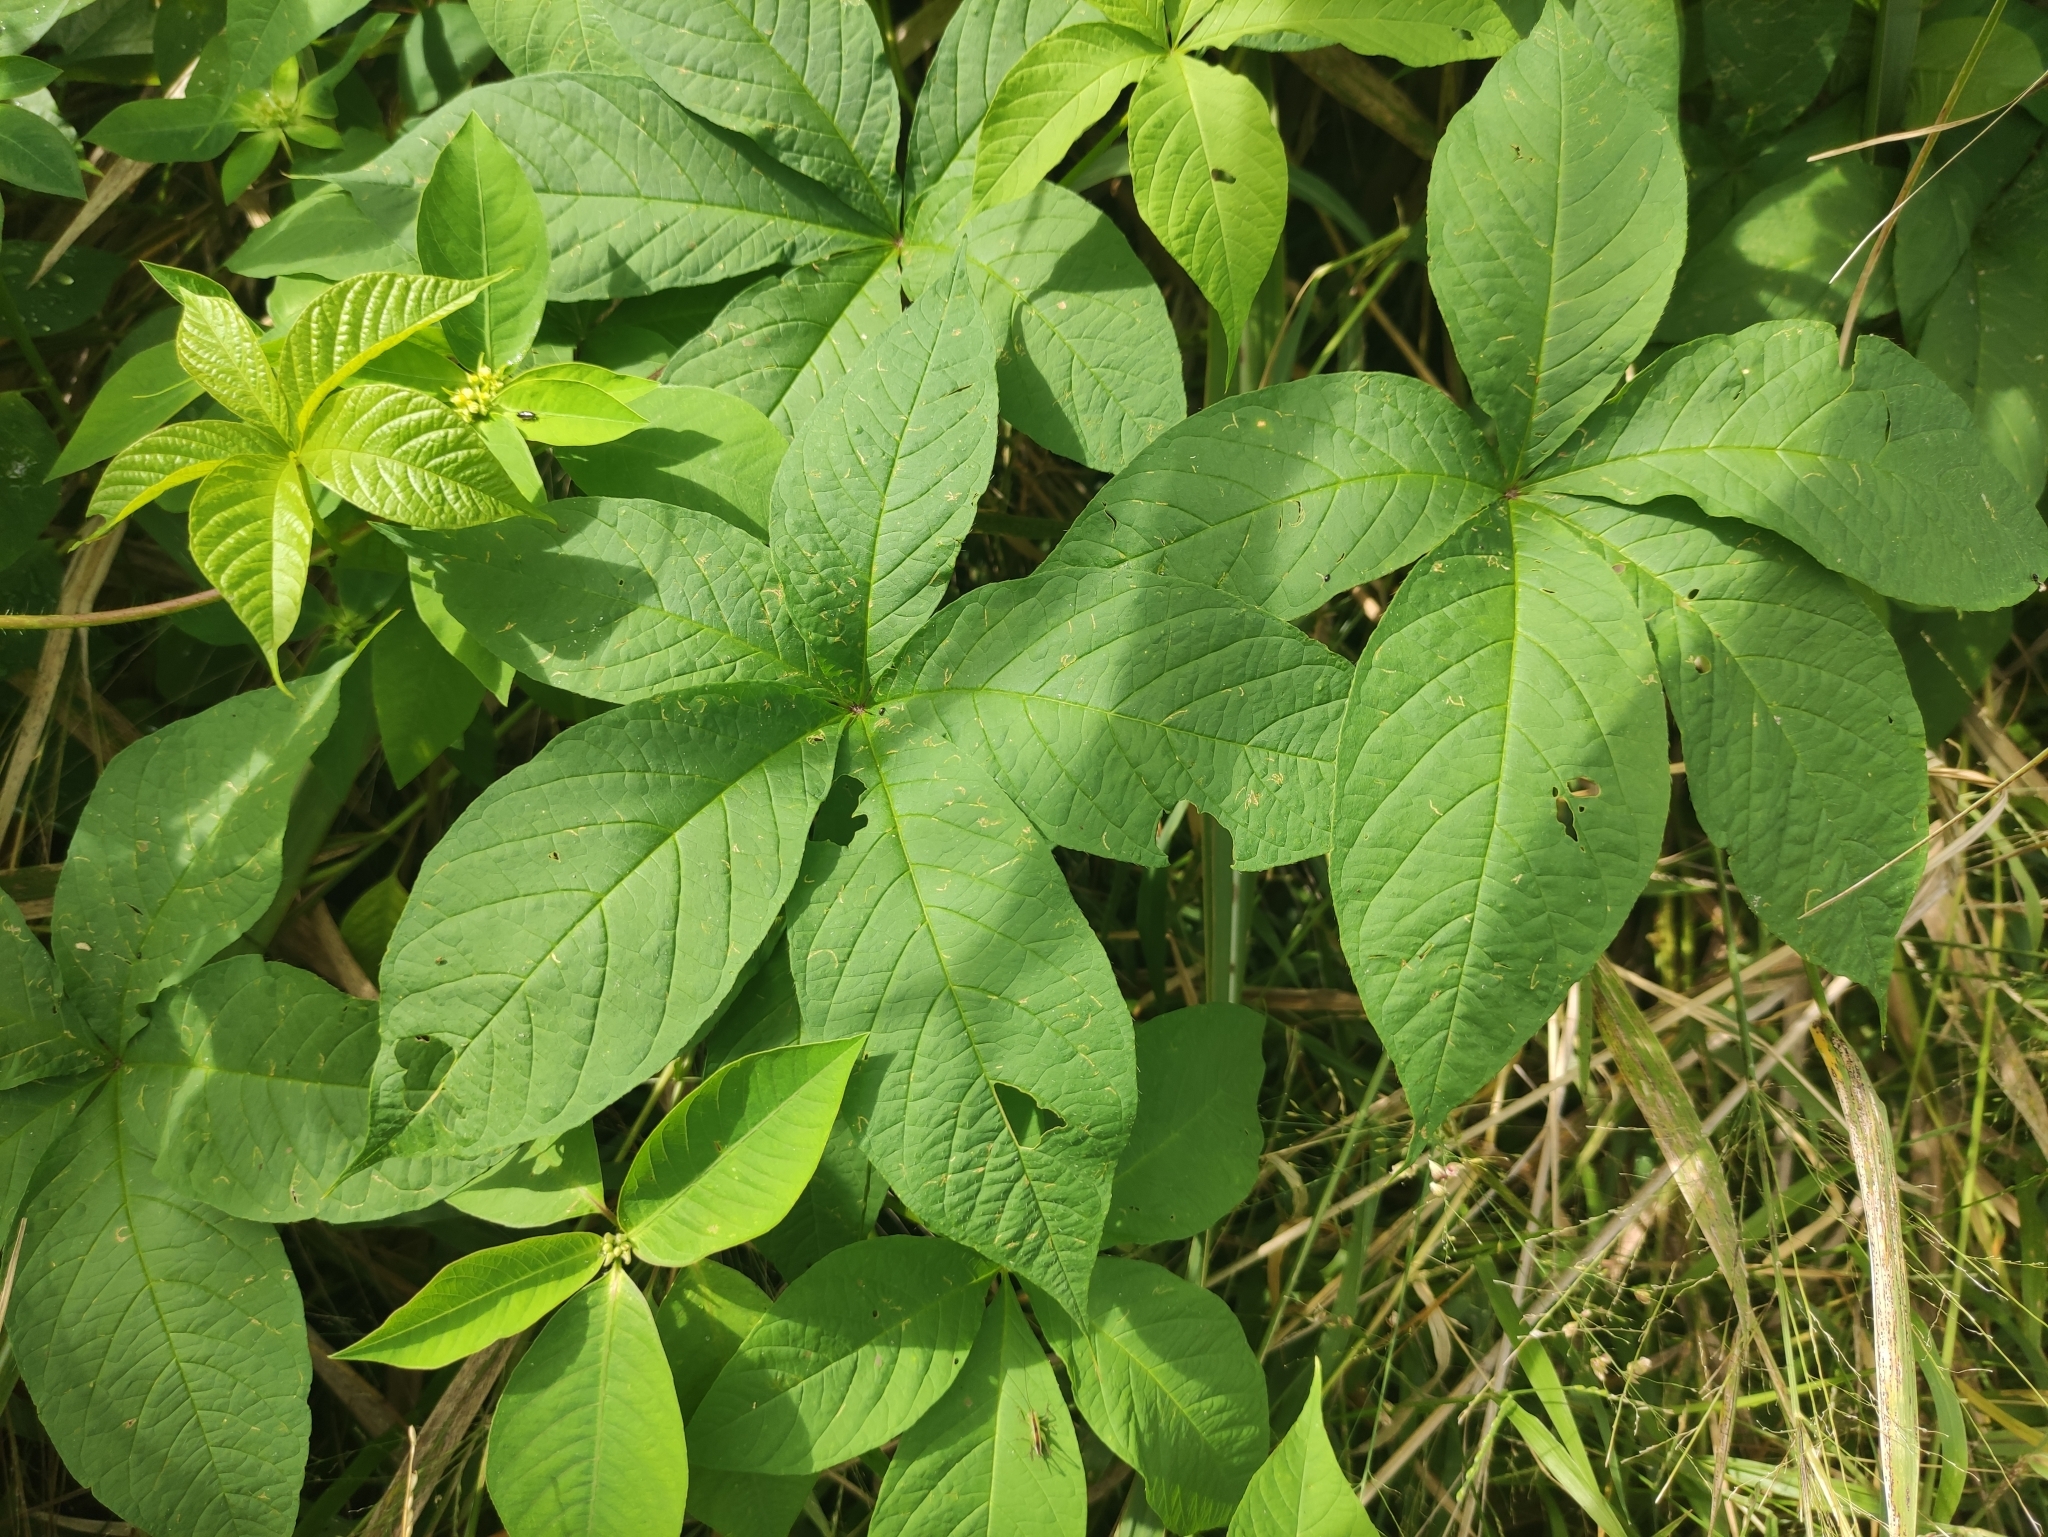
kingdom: Plantae
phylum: Tracheophyta
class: Magnoliopsida
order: Solanales
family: Convolvulaceae
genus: Distimake
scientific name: Distimake aegyptius
